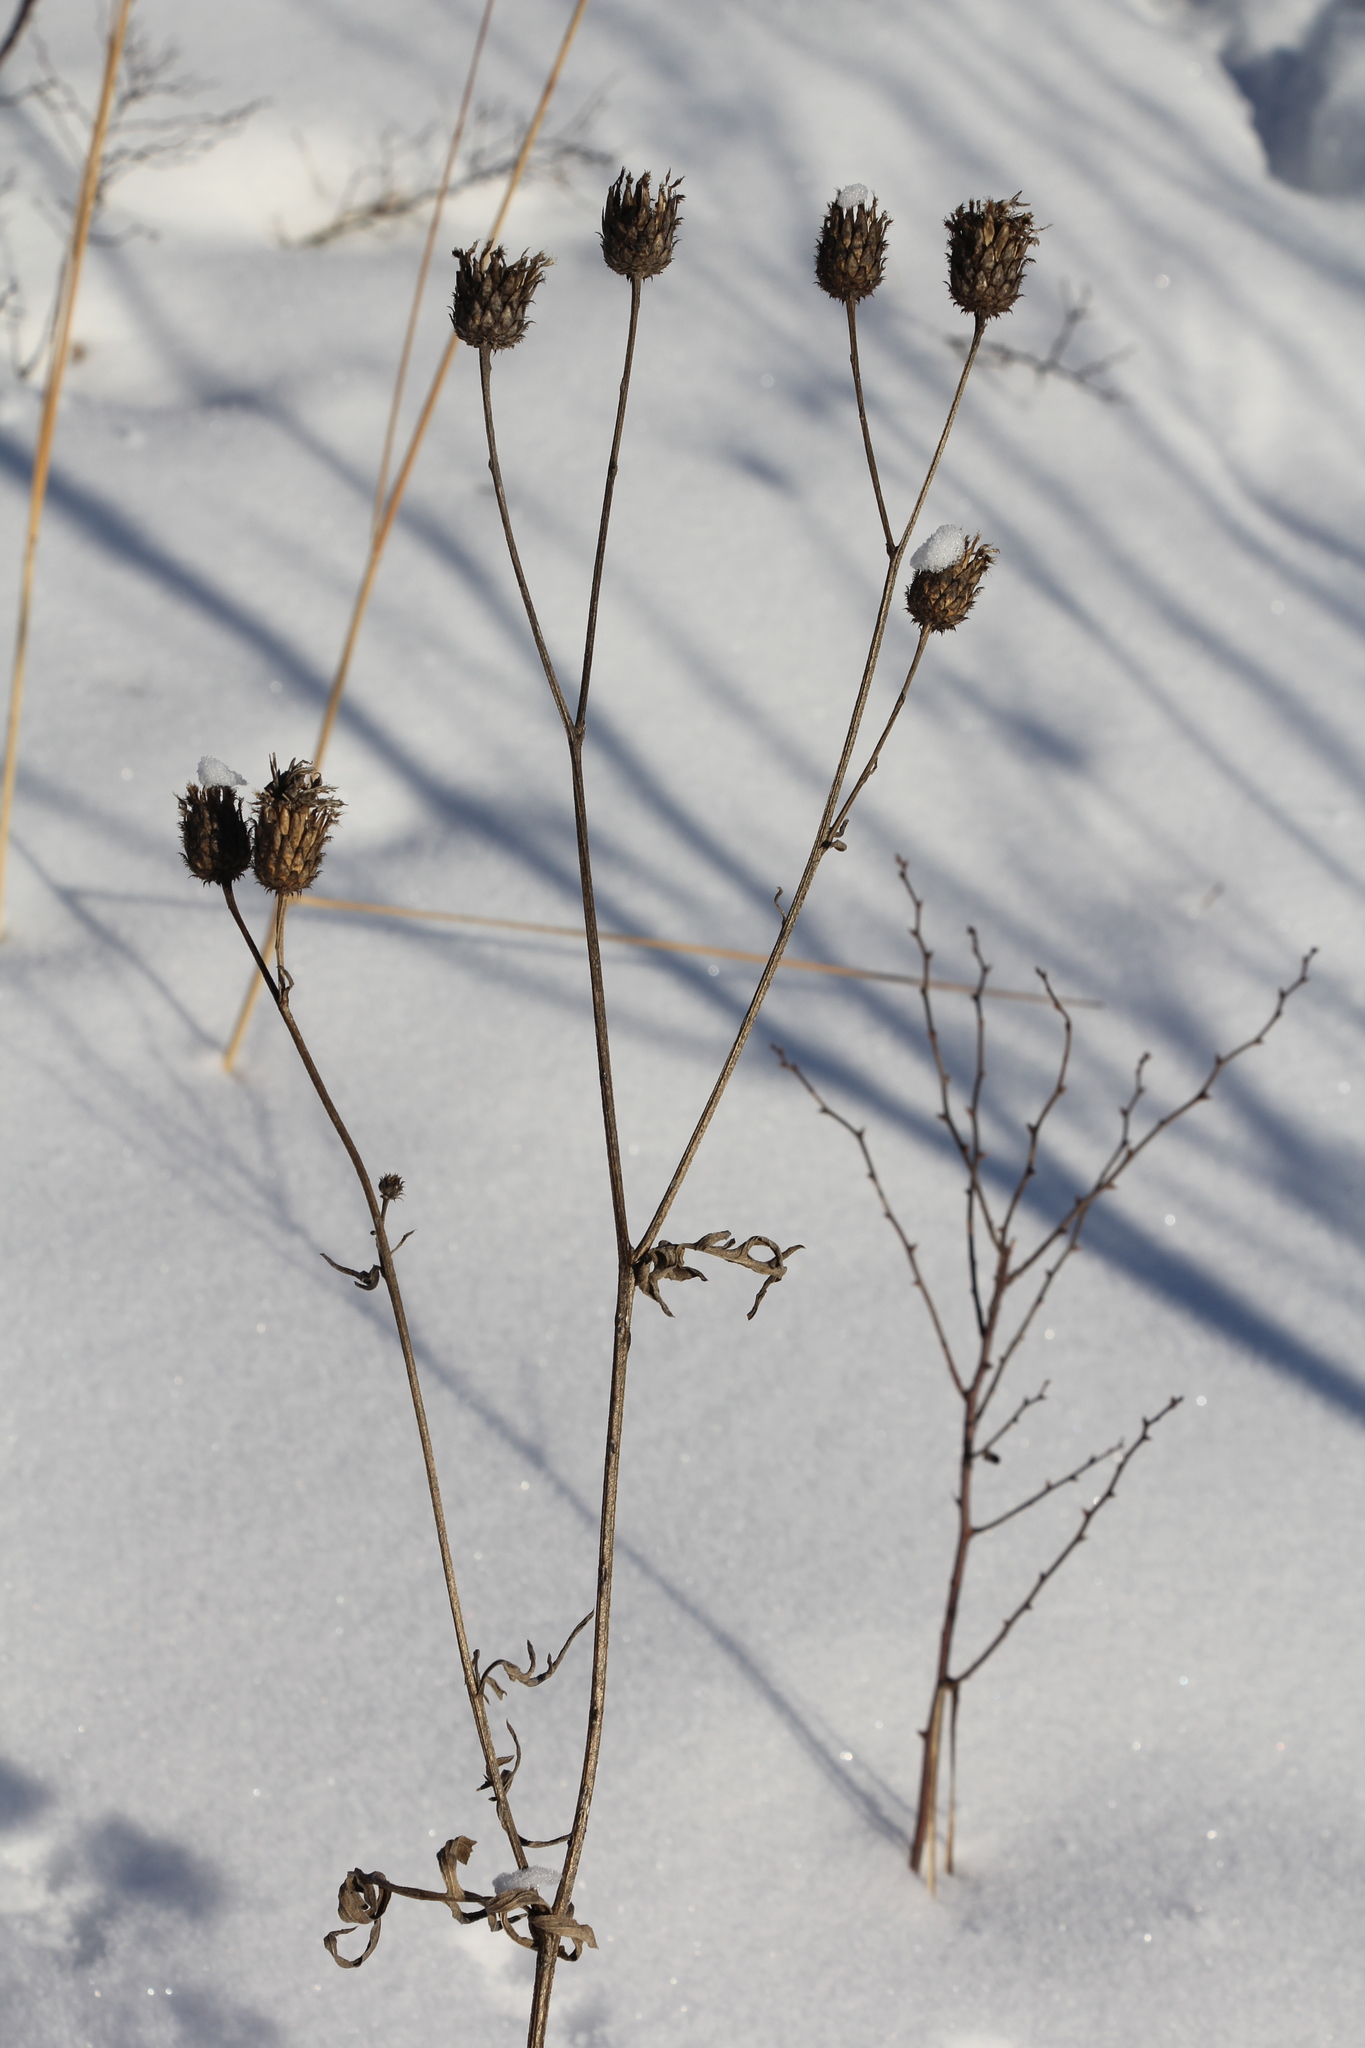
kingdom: Plantae
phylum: Tracheophyta
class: Magnoliopsida
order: Asterales
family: Asteraceae
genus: Centaurea
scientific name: Centaurea scabiosa
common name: Greater knapweed
